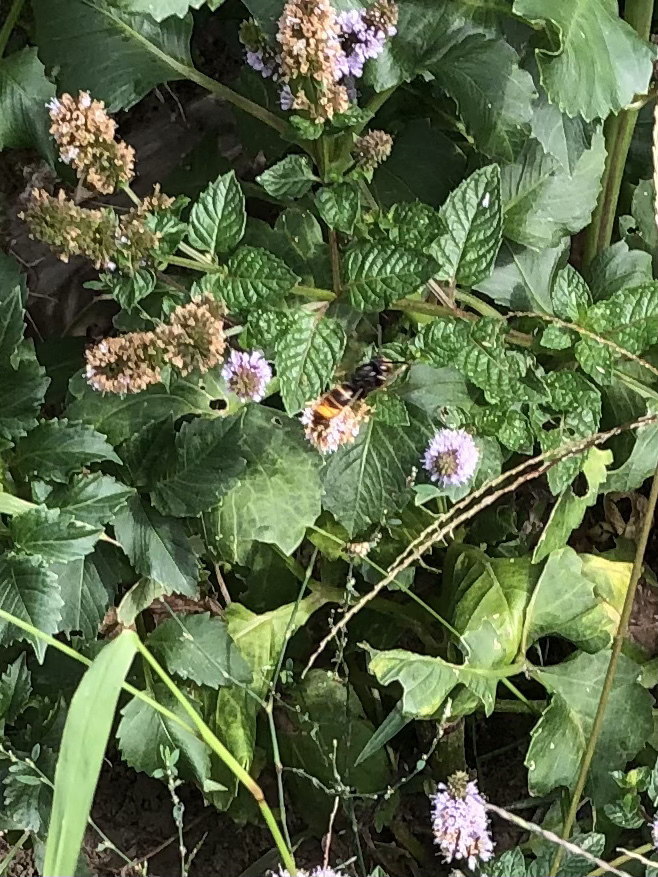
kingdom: Animalia
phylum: Arthropoda
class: Insecta
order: Hymenoptera
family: Vespidae
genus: Vespa
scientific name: Vespa velutina
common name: Asian hornet
